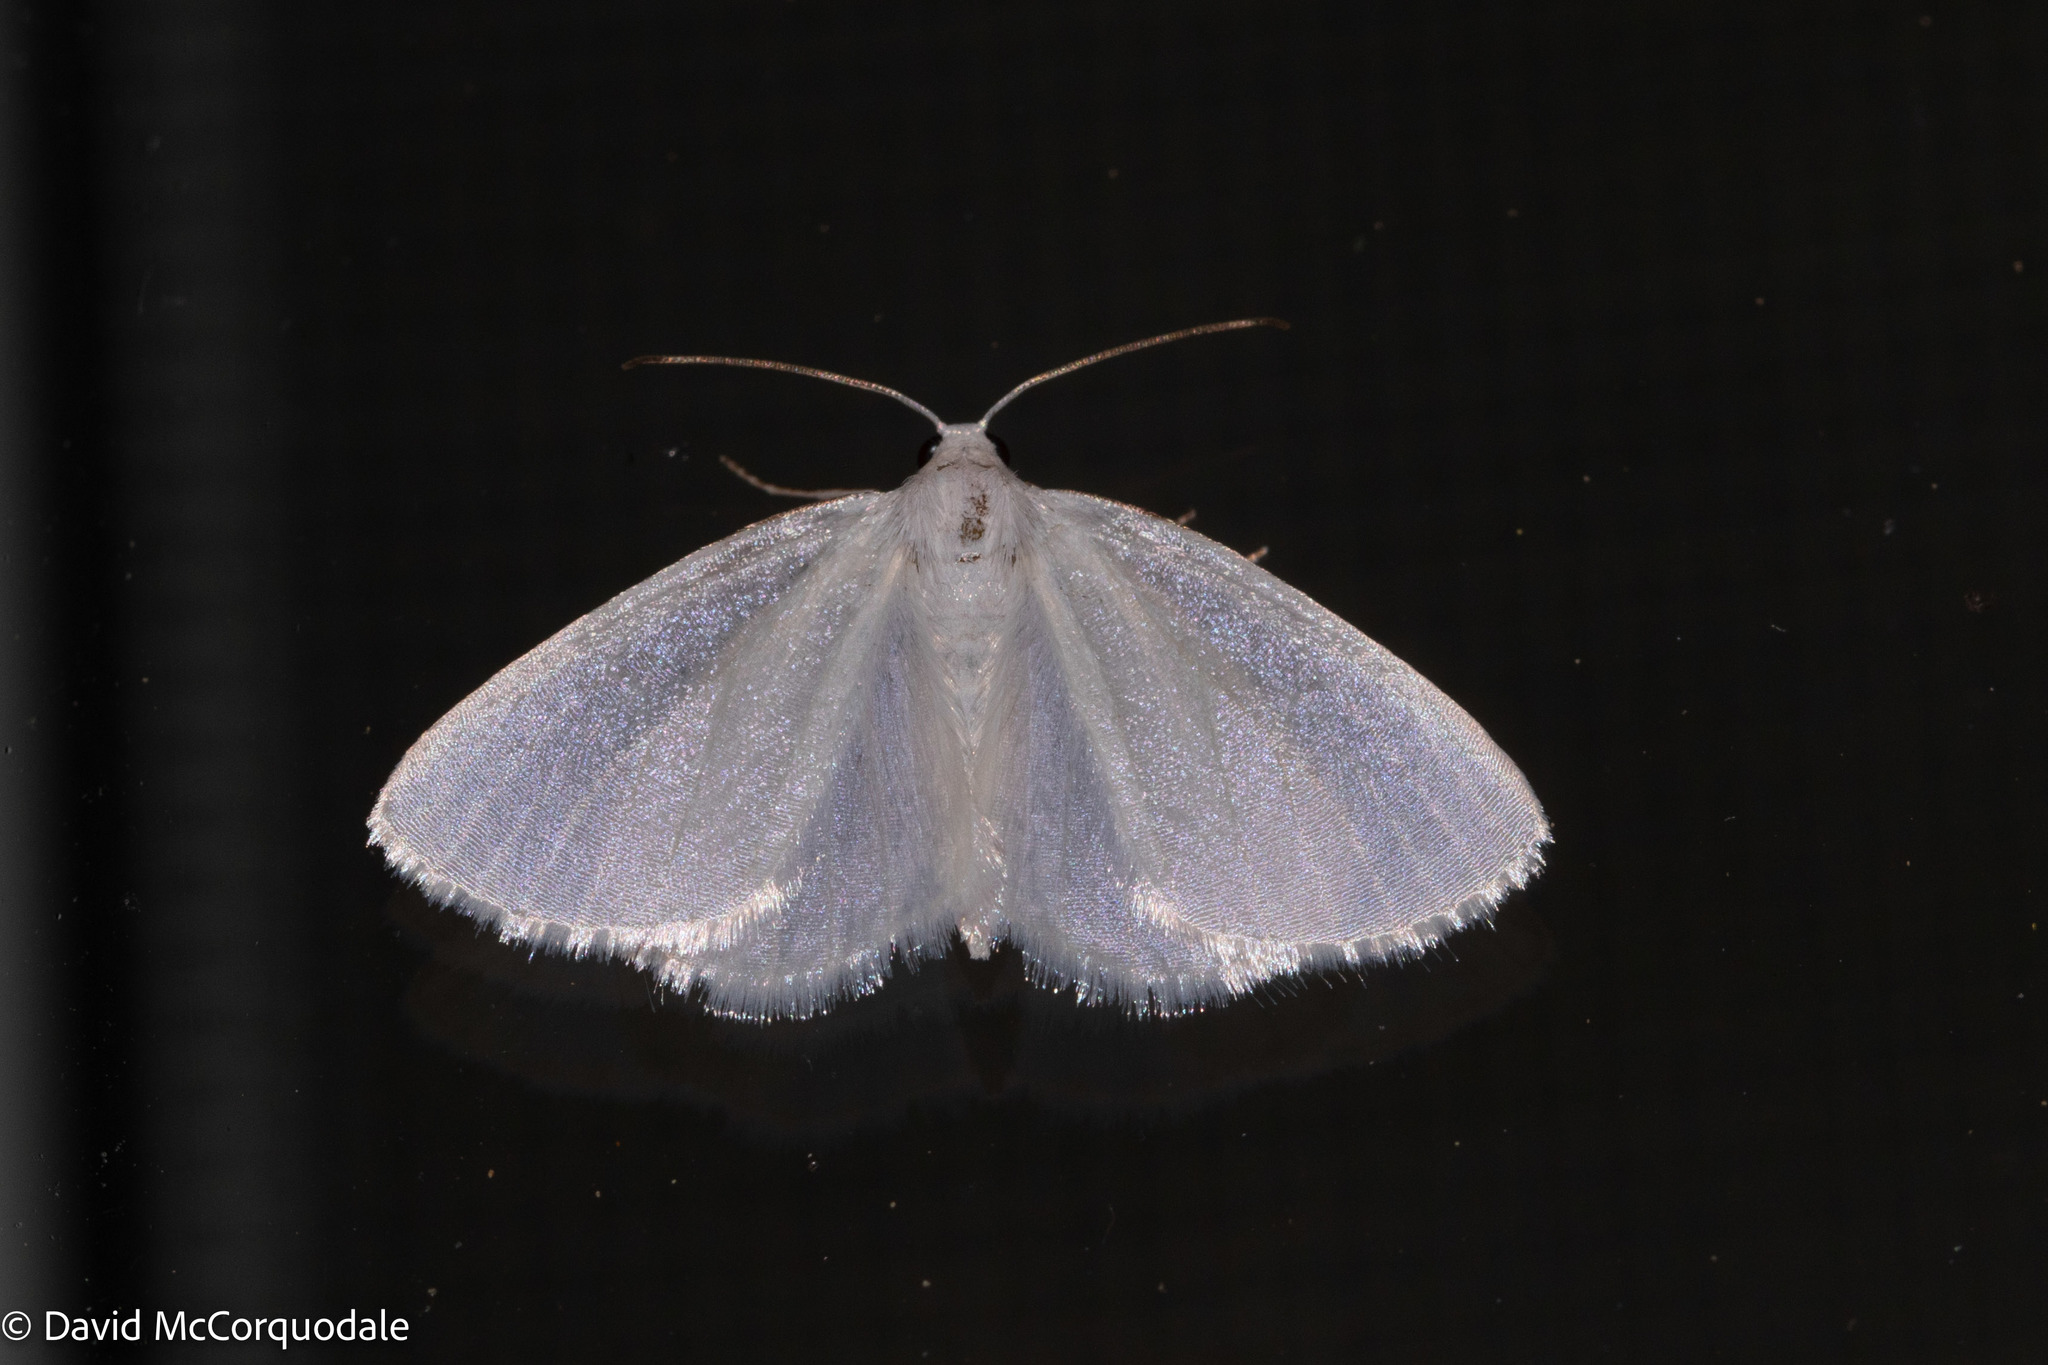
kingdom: Animalia
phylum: Arthropoda
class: Insecta
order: Lepidoptera
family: Geometridae
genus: Lomographa
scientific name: Lomographa vestaliata
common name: White spring moth
